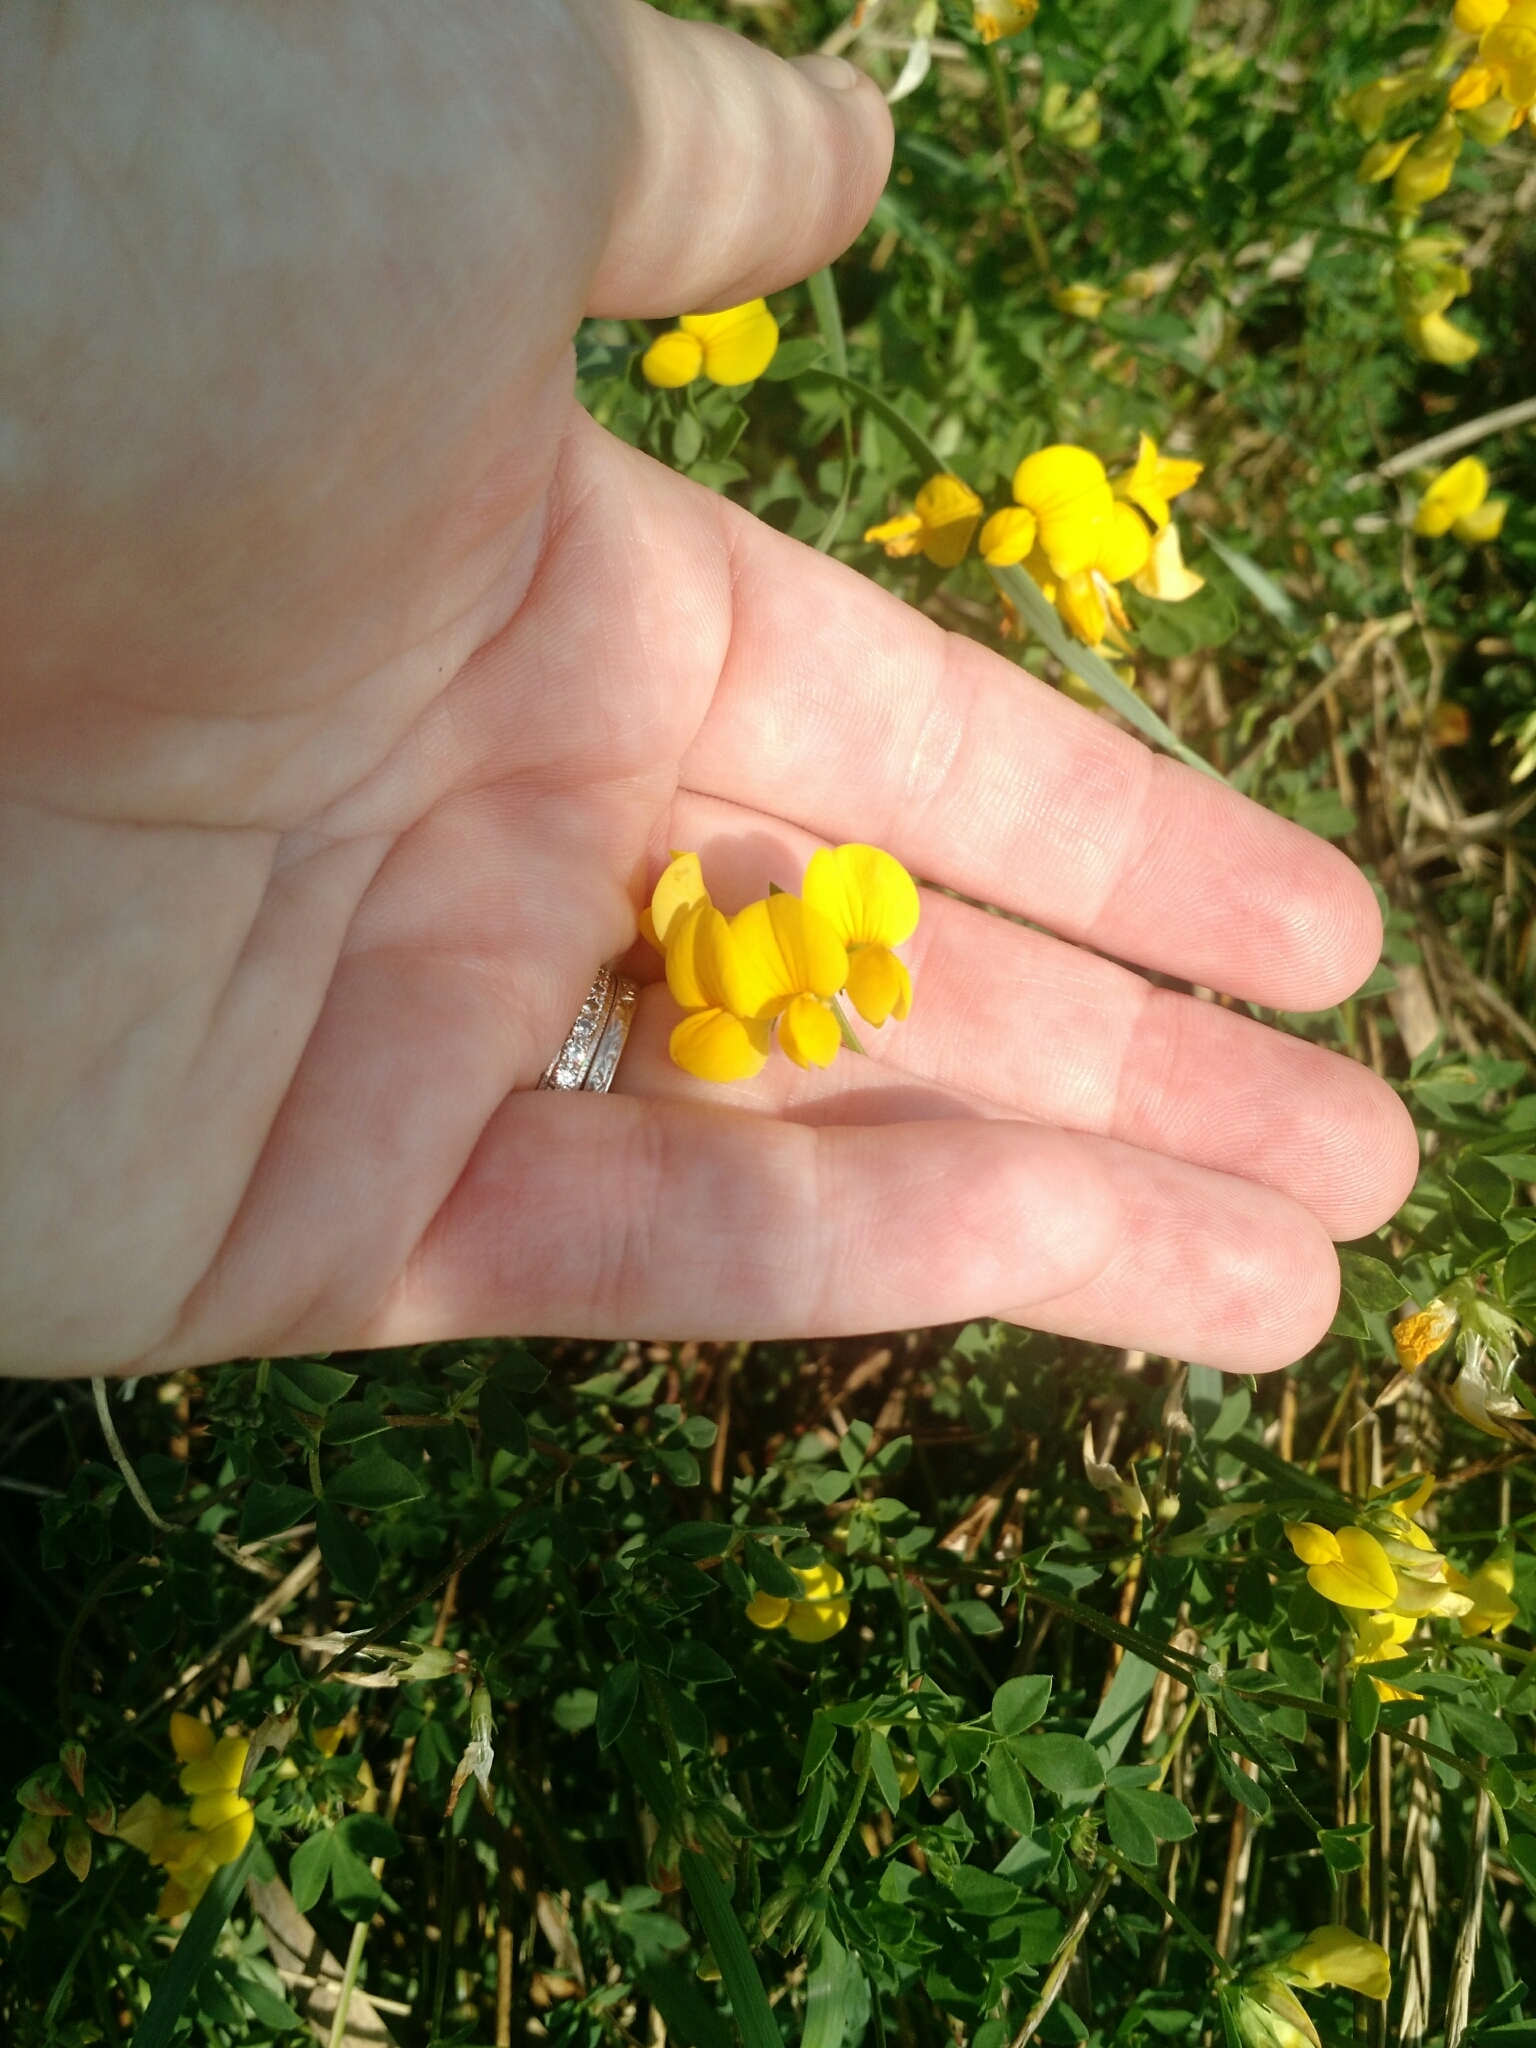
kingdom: Plantae
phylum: Tracheophyta
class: Magnoliopsida
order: Fabales
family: Fabaceae
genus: Lotus
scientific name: Lotus corniculatus
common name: Common bird's-foot-trefoil
